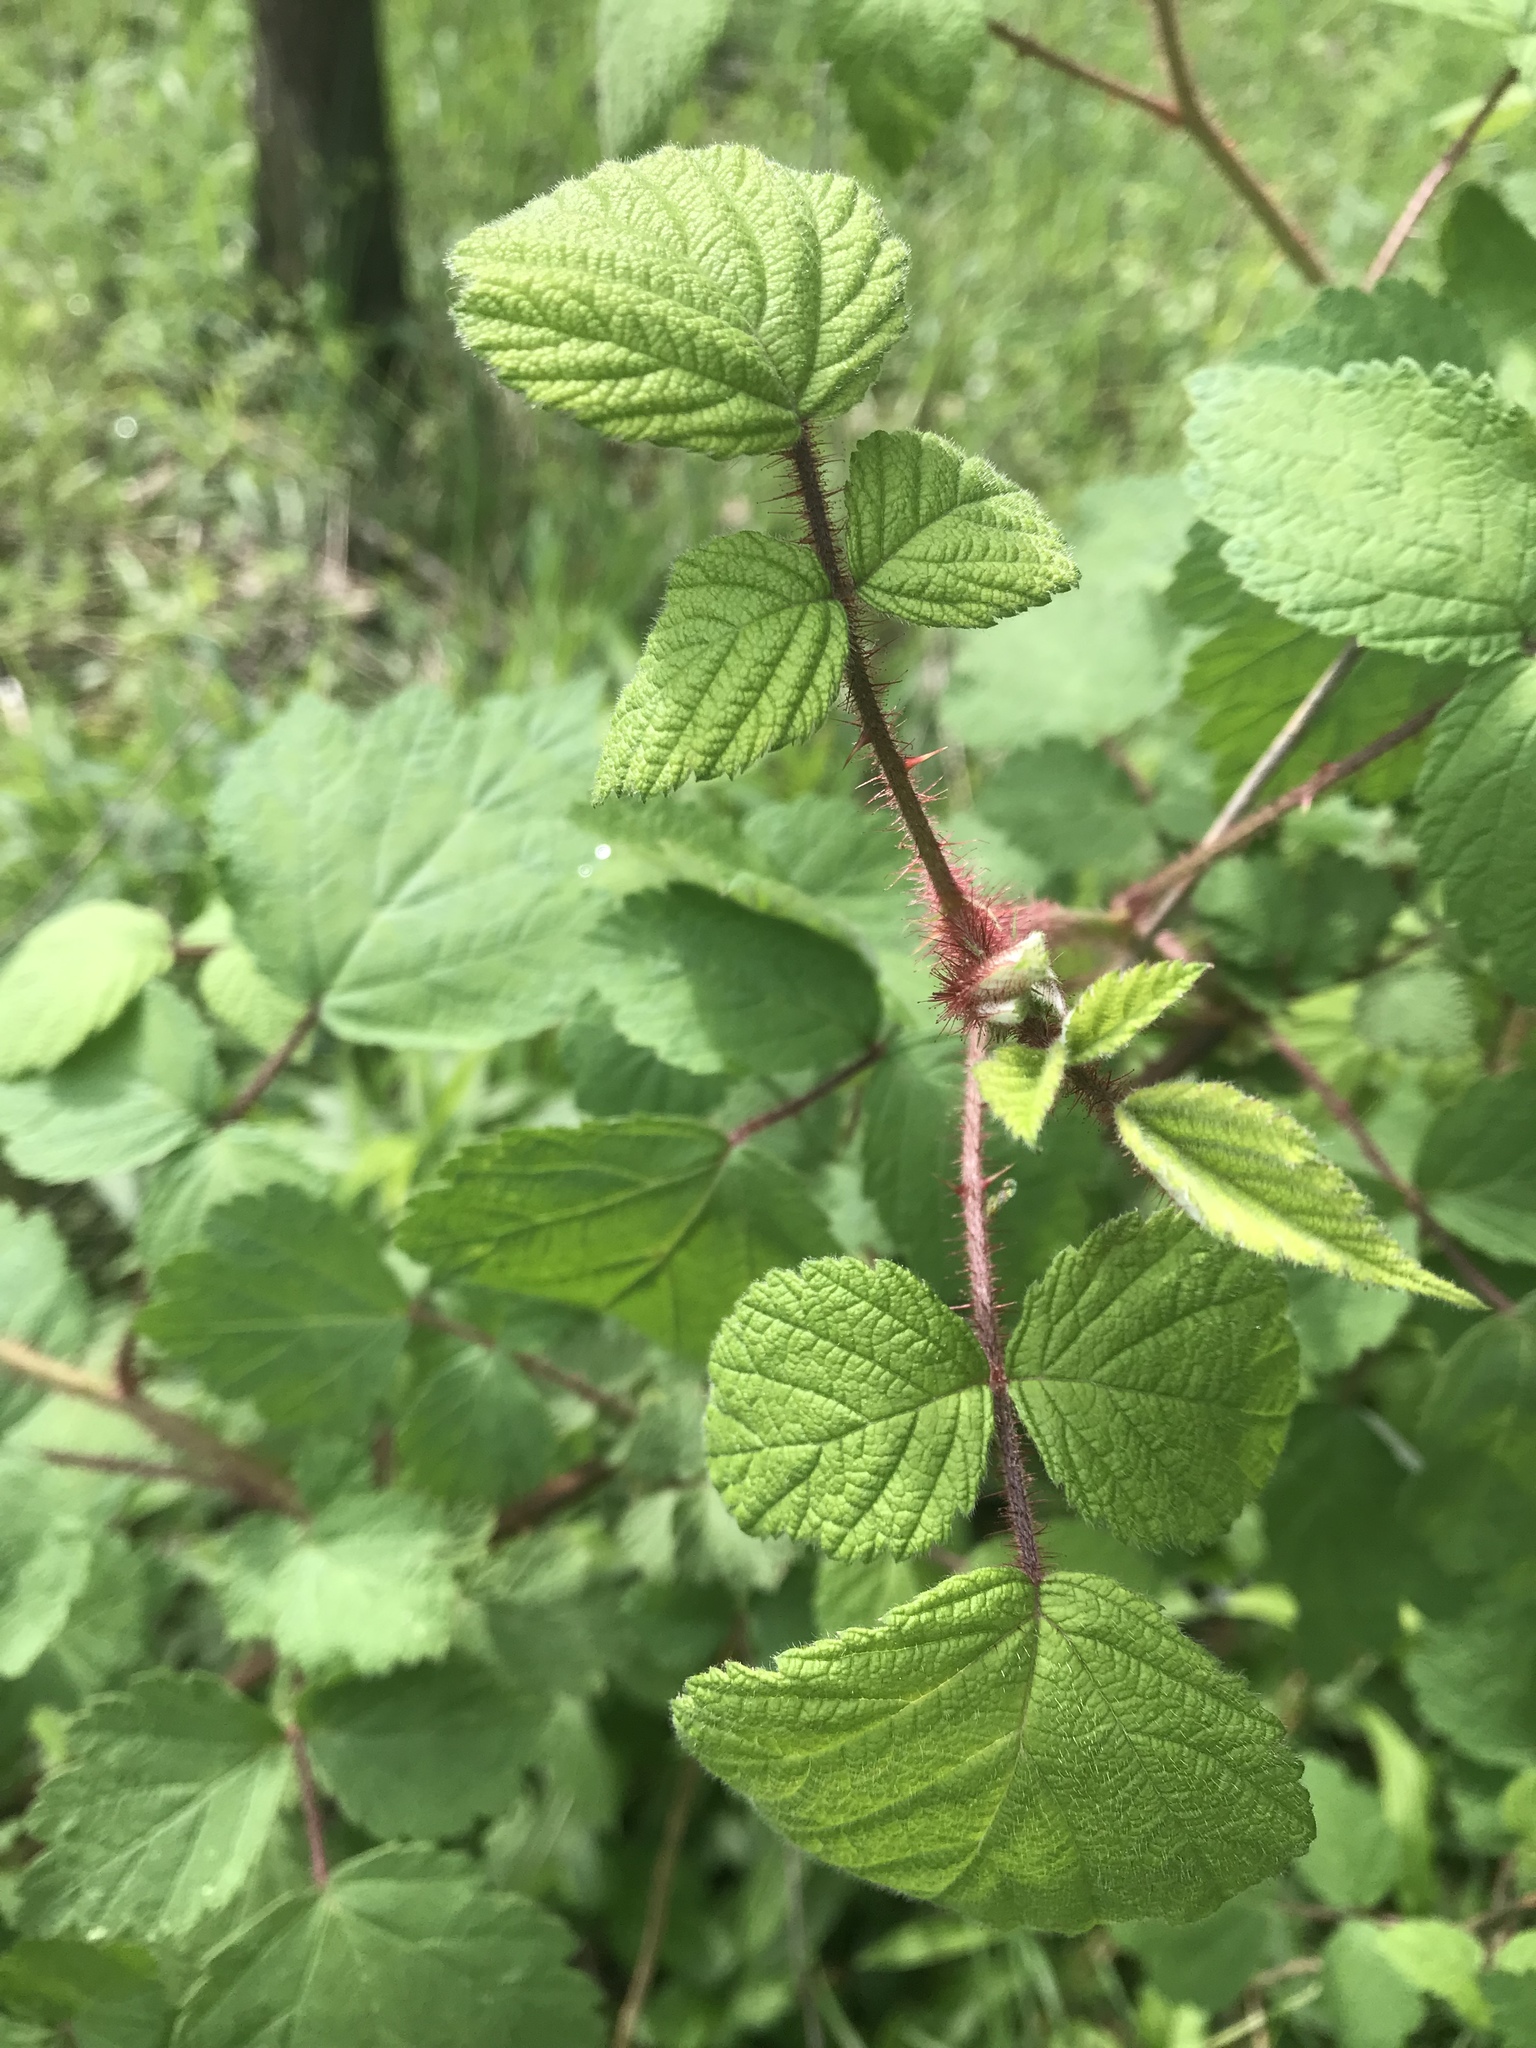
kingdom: Plantae
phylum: Tracheophyta
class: Magnoliopsida
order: Rosales
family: Rosaceae
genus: Rubus
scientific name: Rubus phoenicolasius
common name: Japanese wineberry
